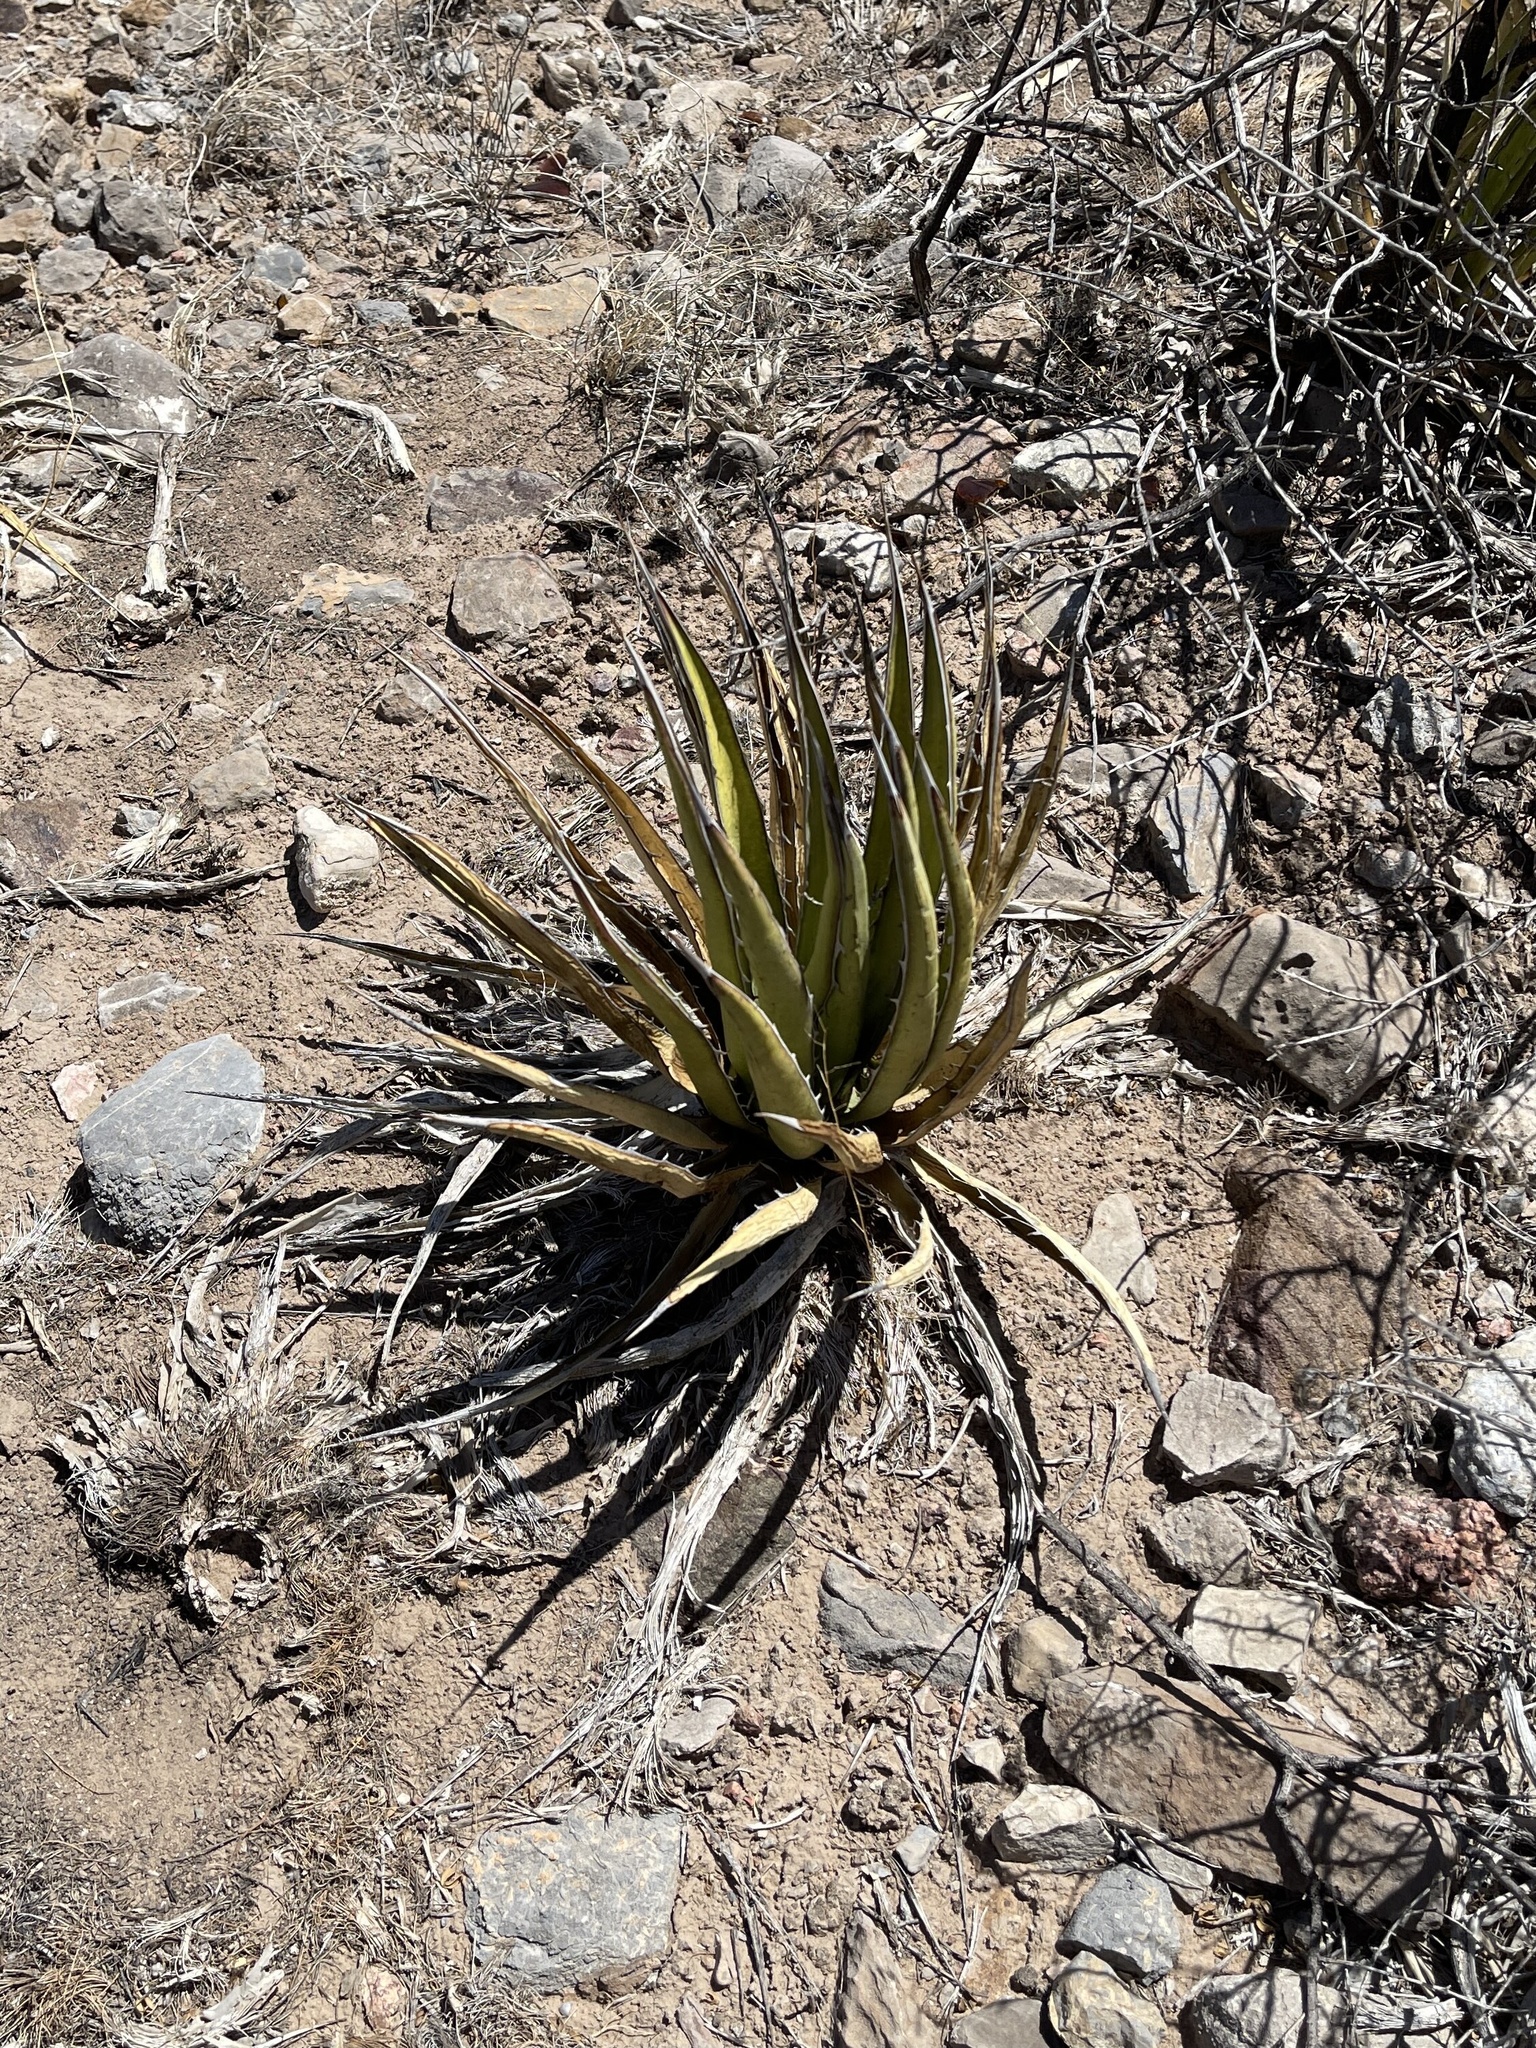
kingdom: Plantae
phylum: Tracheophyta
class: Liliopsida
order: Asparagales
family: Asparagaceae
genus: Agave
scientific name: Agave lechuguilla
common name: Lecheguilla agave
